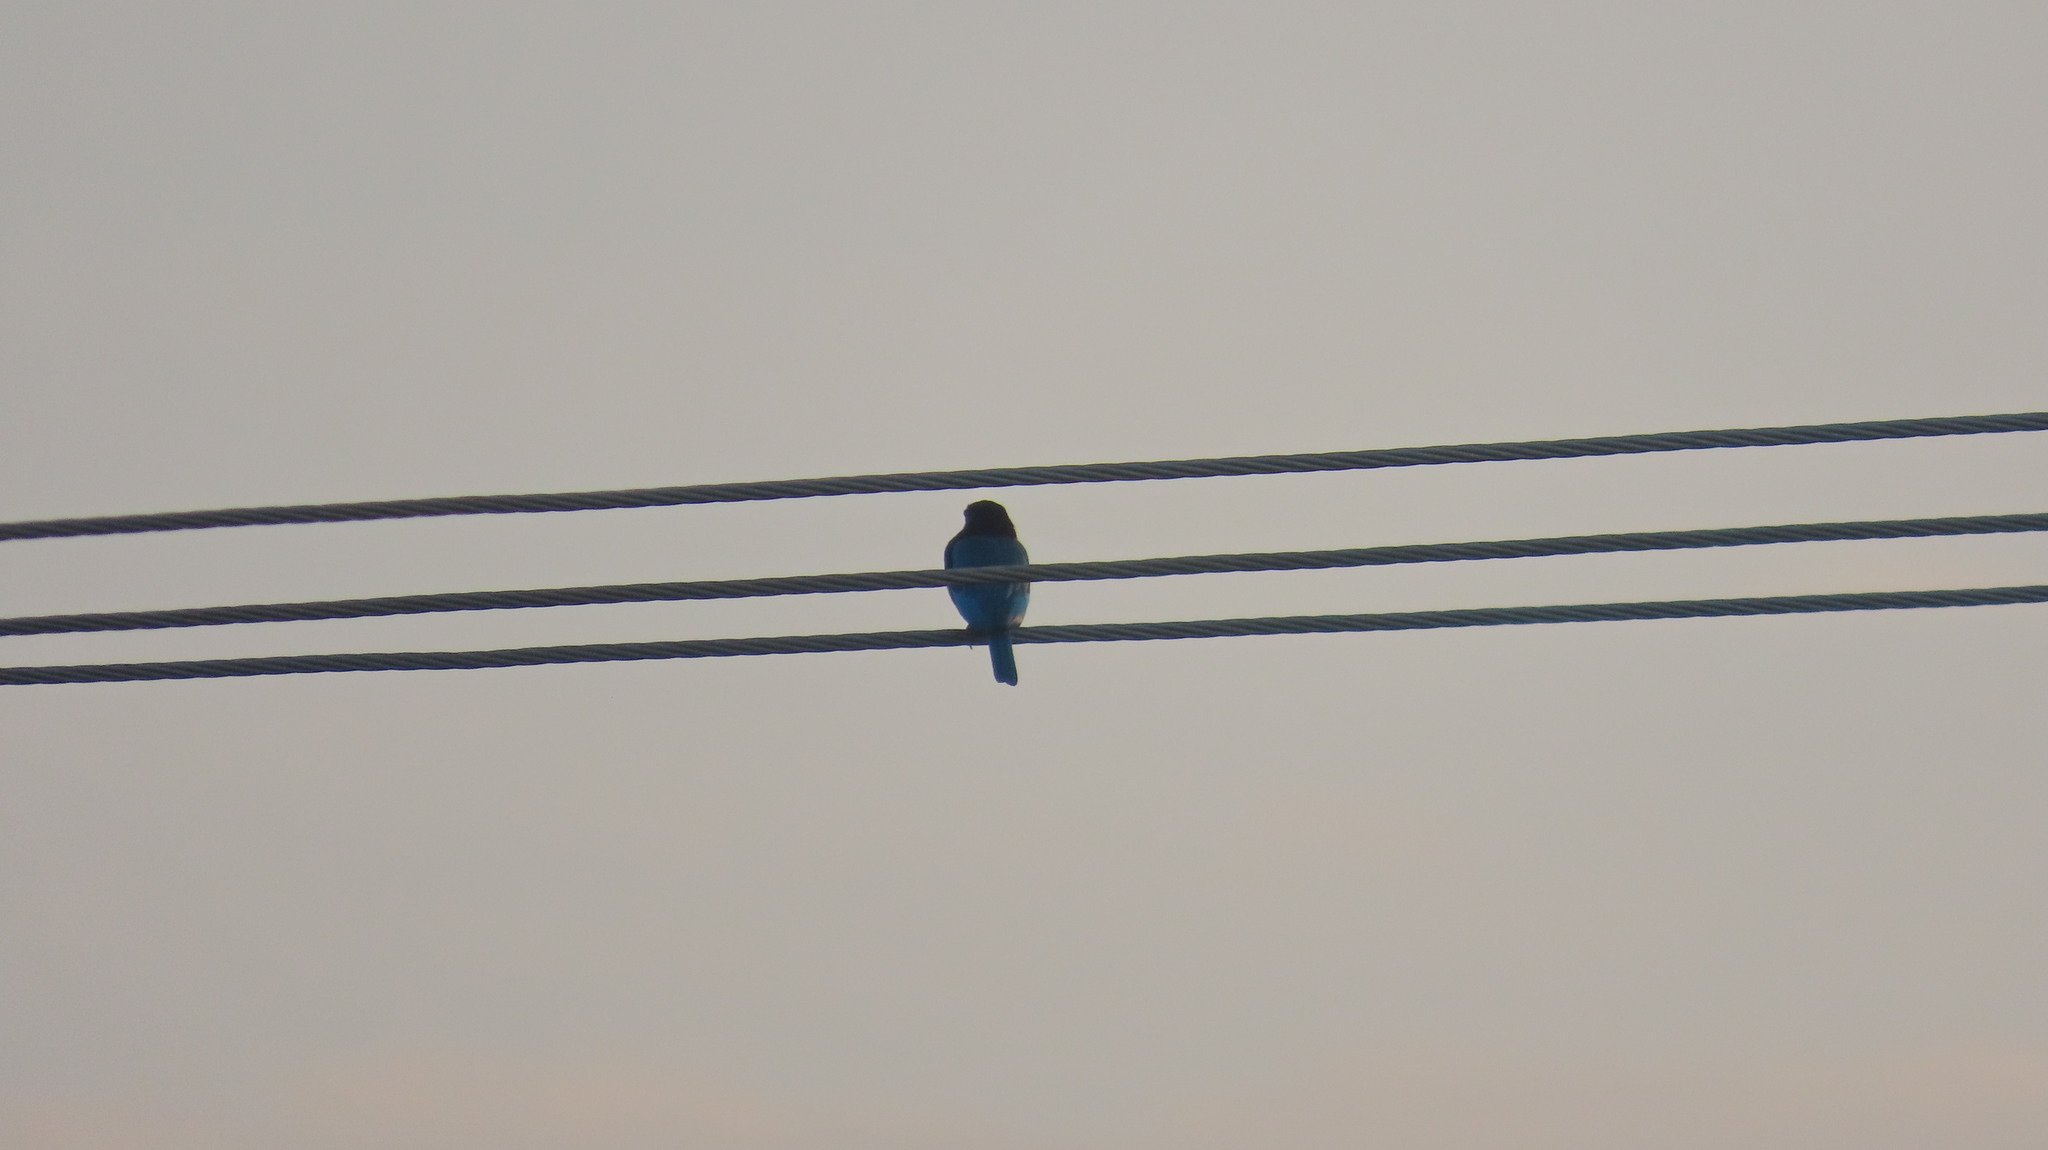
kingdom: Animalia
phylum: Chordata
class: Aves
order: Coraciiformes
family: Alcedinidae
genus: Halcyon
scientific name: Halcyon smyrnensis
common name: White-throated kingfisher
